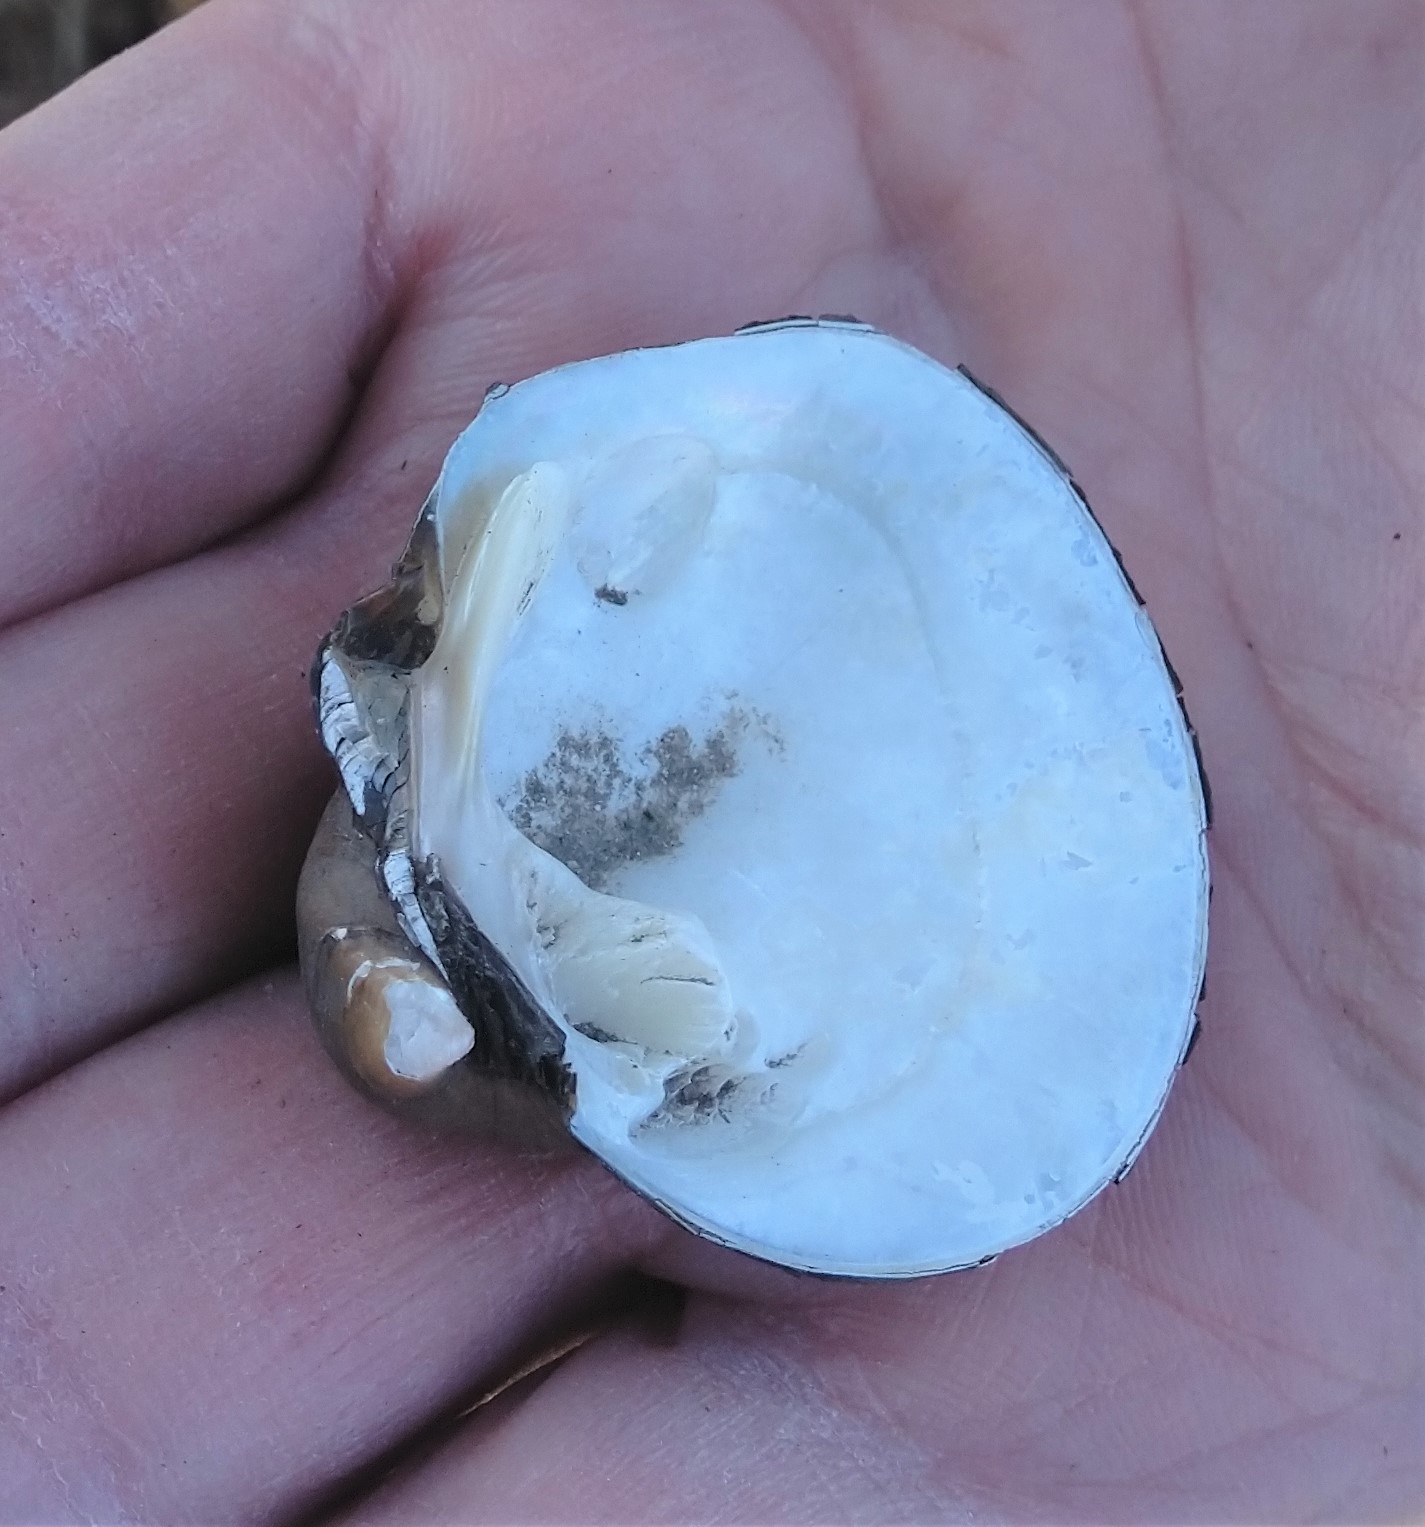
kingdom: Animalia
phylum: Mollusca
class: Bivalvia
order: Unionida
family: Unionidae
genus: Cyclonaias
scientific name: Cyclonaias pustulosa
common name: Pimpleback
